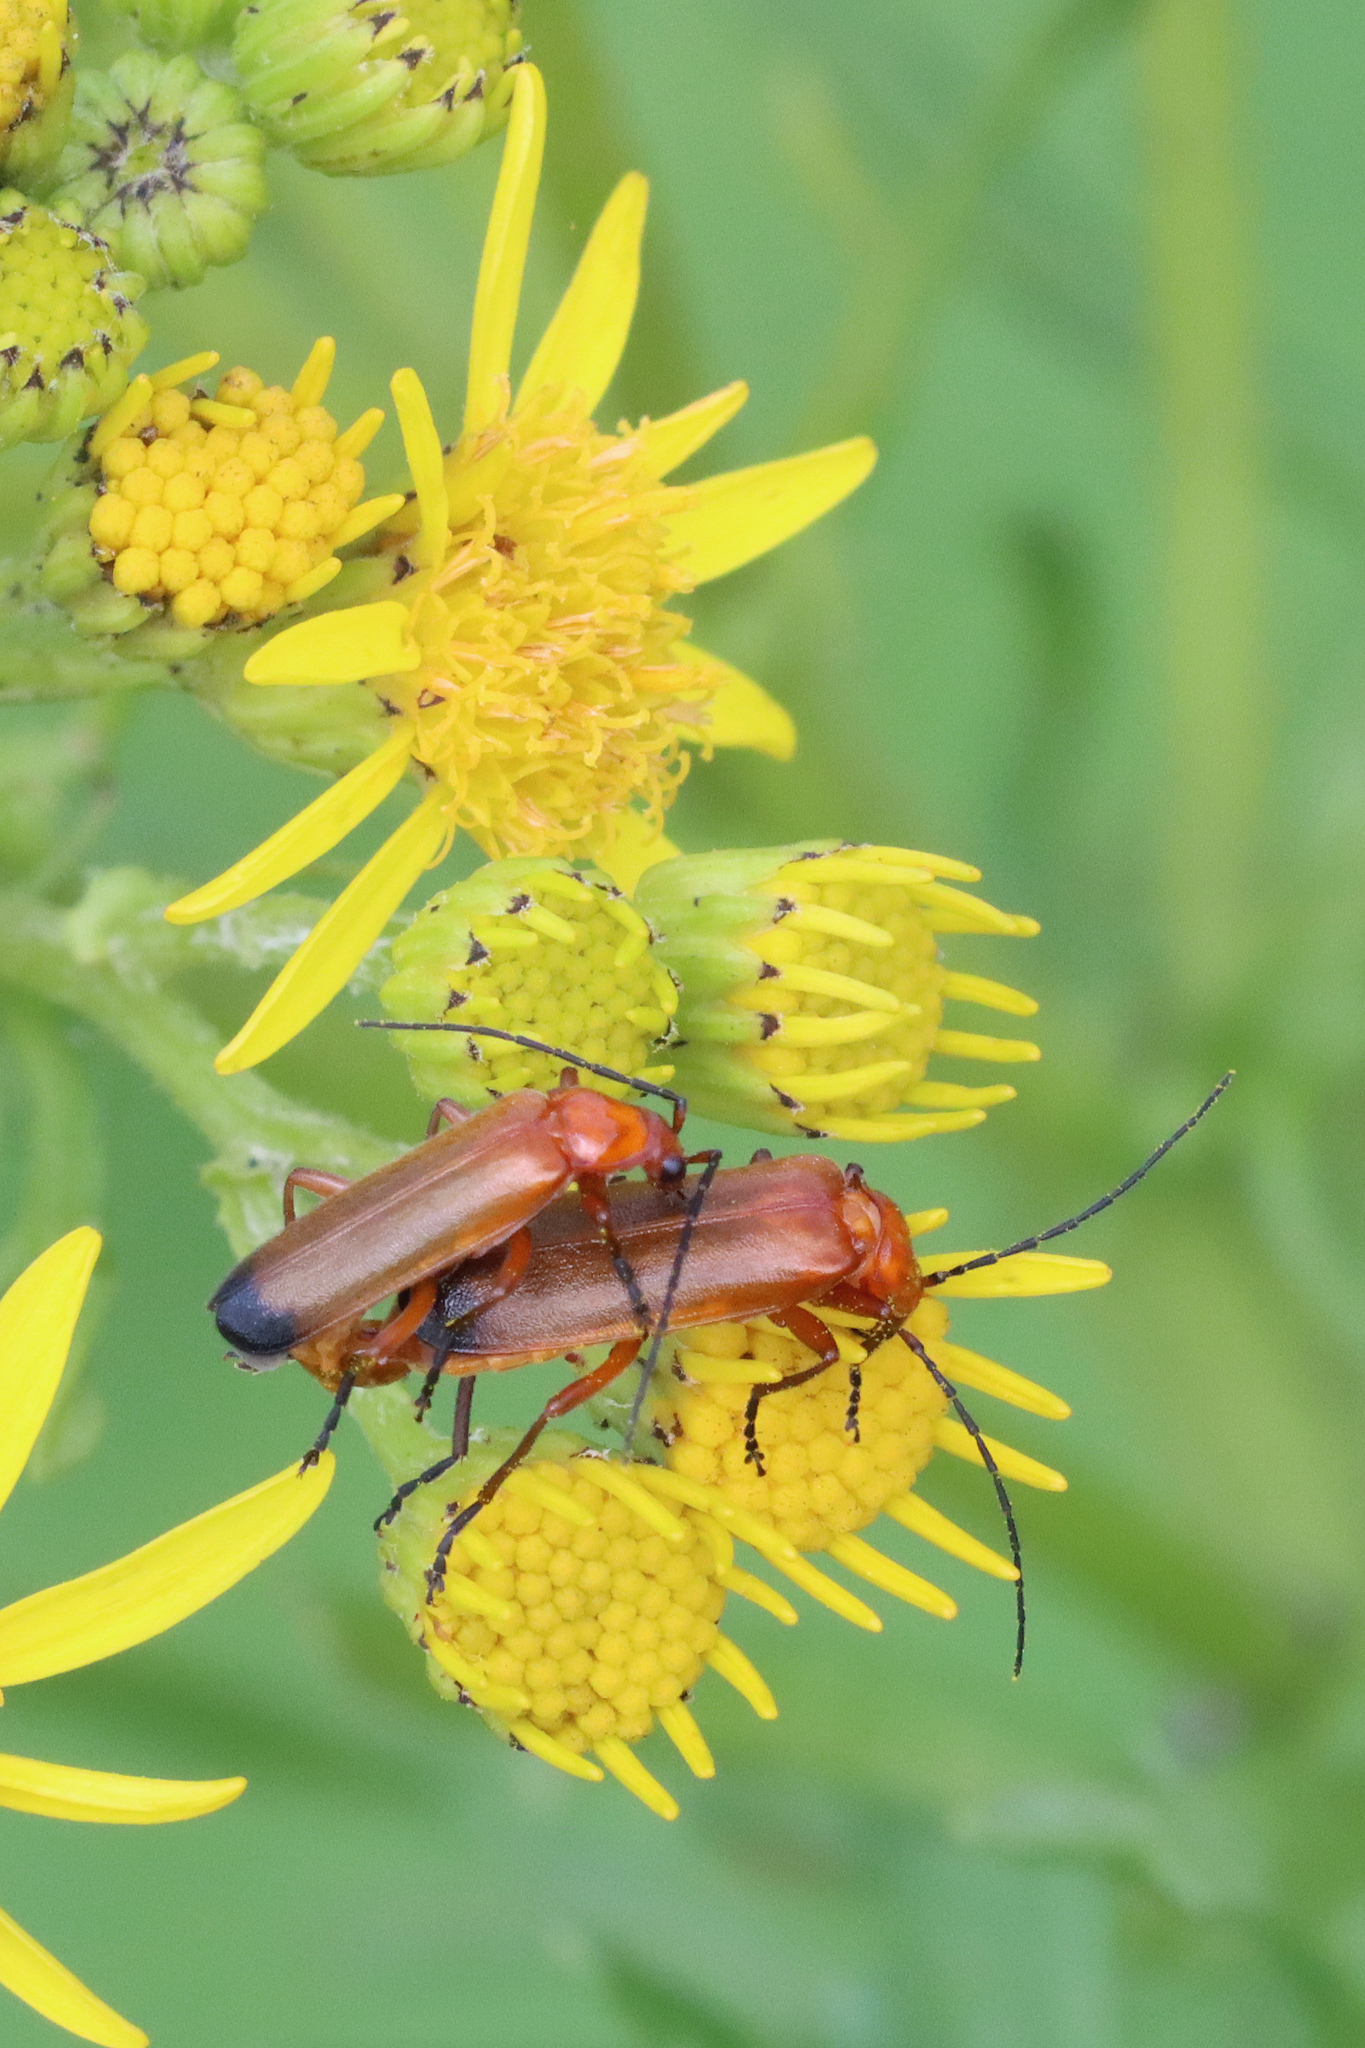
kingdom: Animalia
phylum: Arthropoda
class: Insecta
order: Coleoptera
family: Cantharidae
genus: Rhagonycha
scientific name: Rhagonycha fulva
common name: Common red soldier beetle
